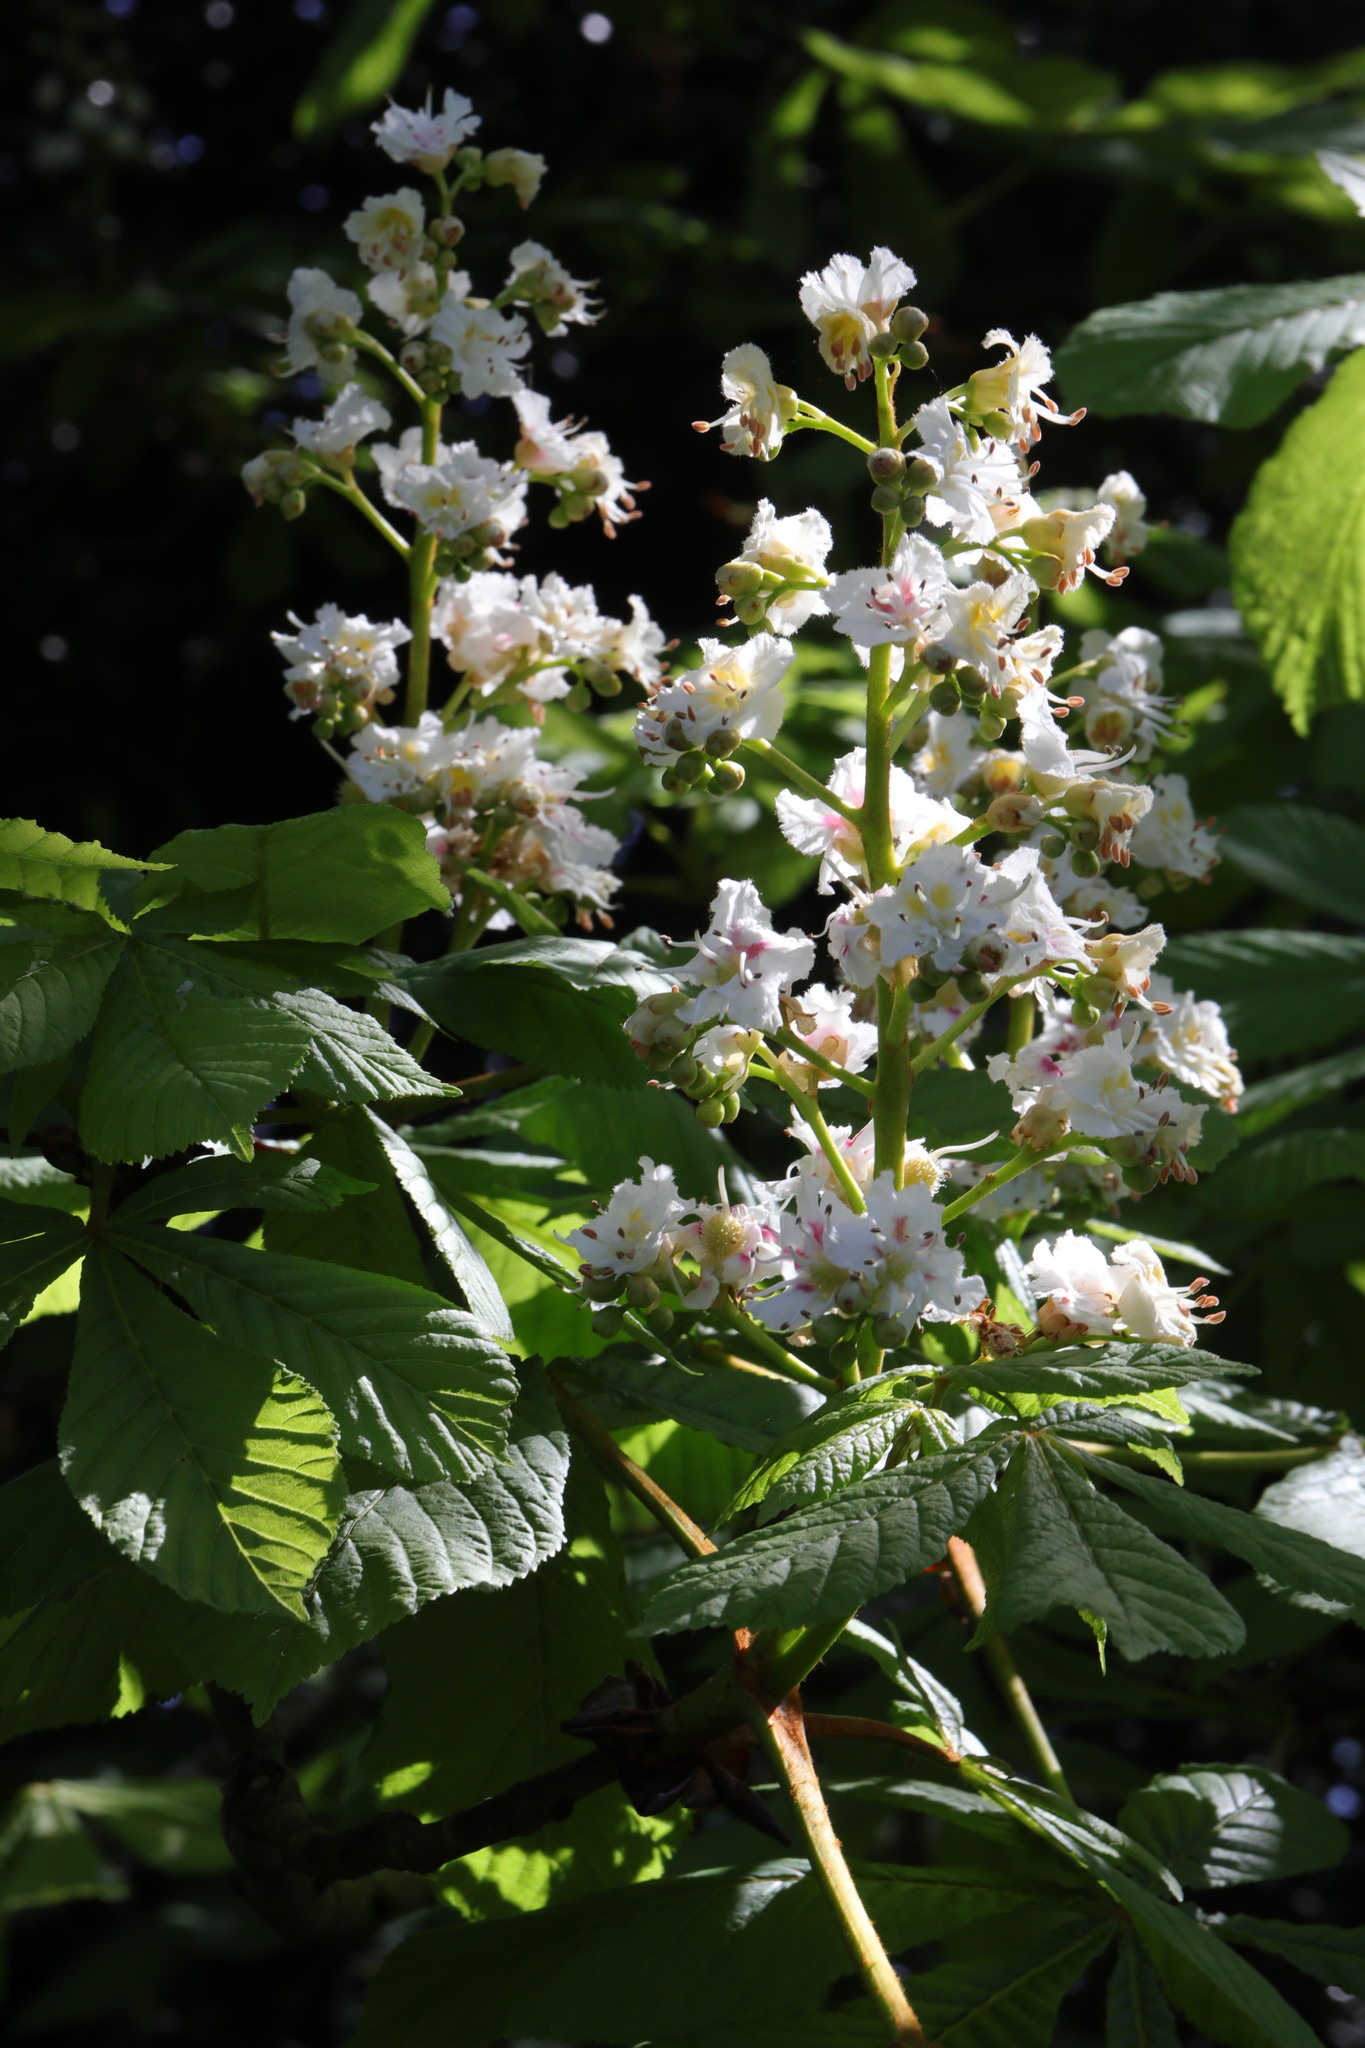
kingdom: Plantae
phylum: Tracheophyta
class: Magnoliopsida
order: Sapindales
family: Sapindaceae
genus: Aesculus
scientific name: Aesculus hippocastanum
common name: Horse-chestnut
